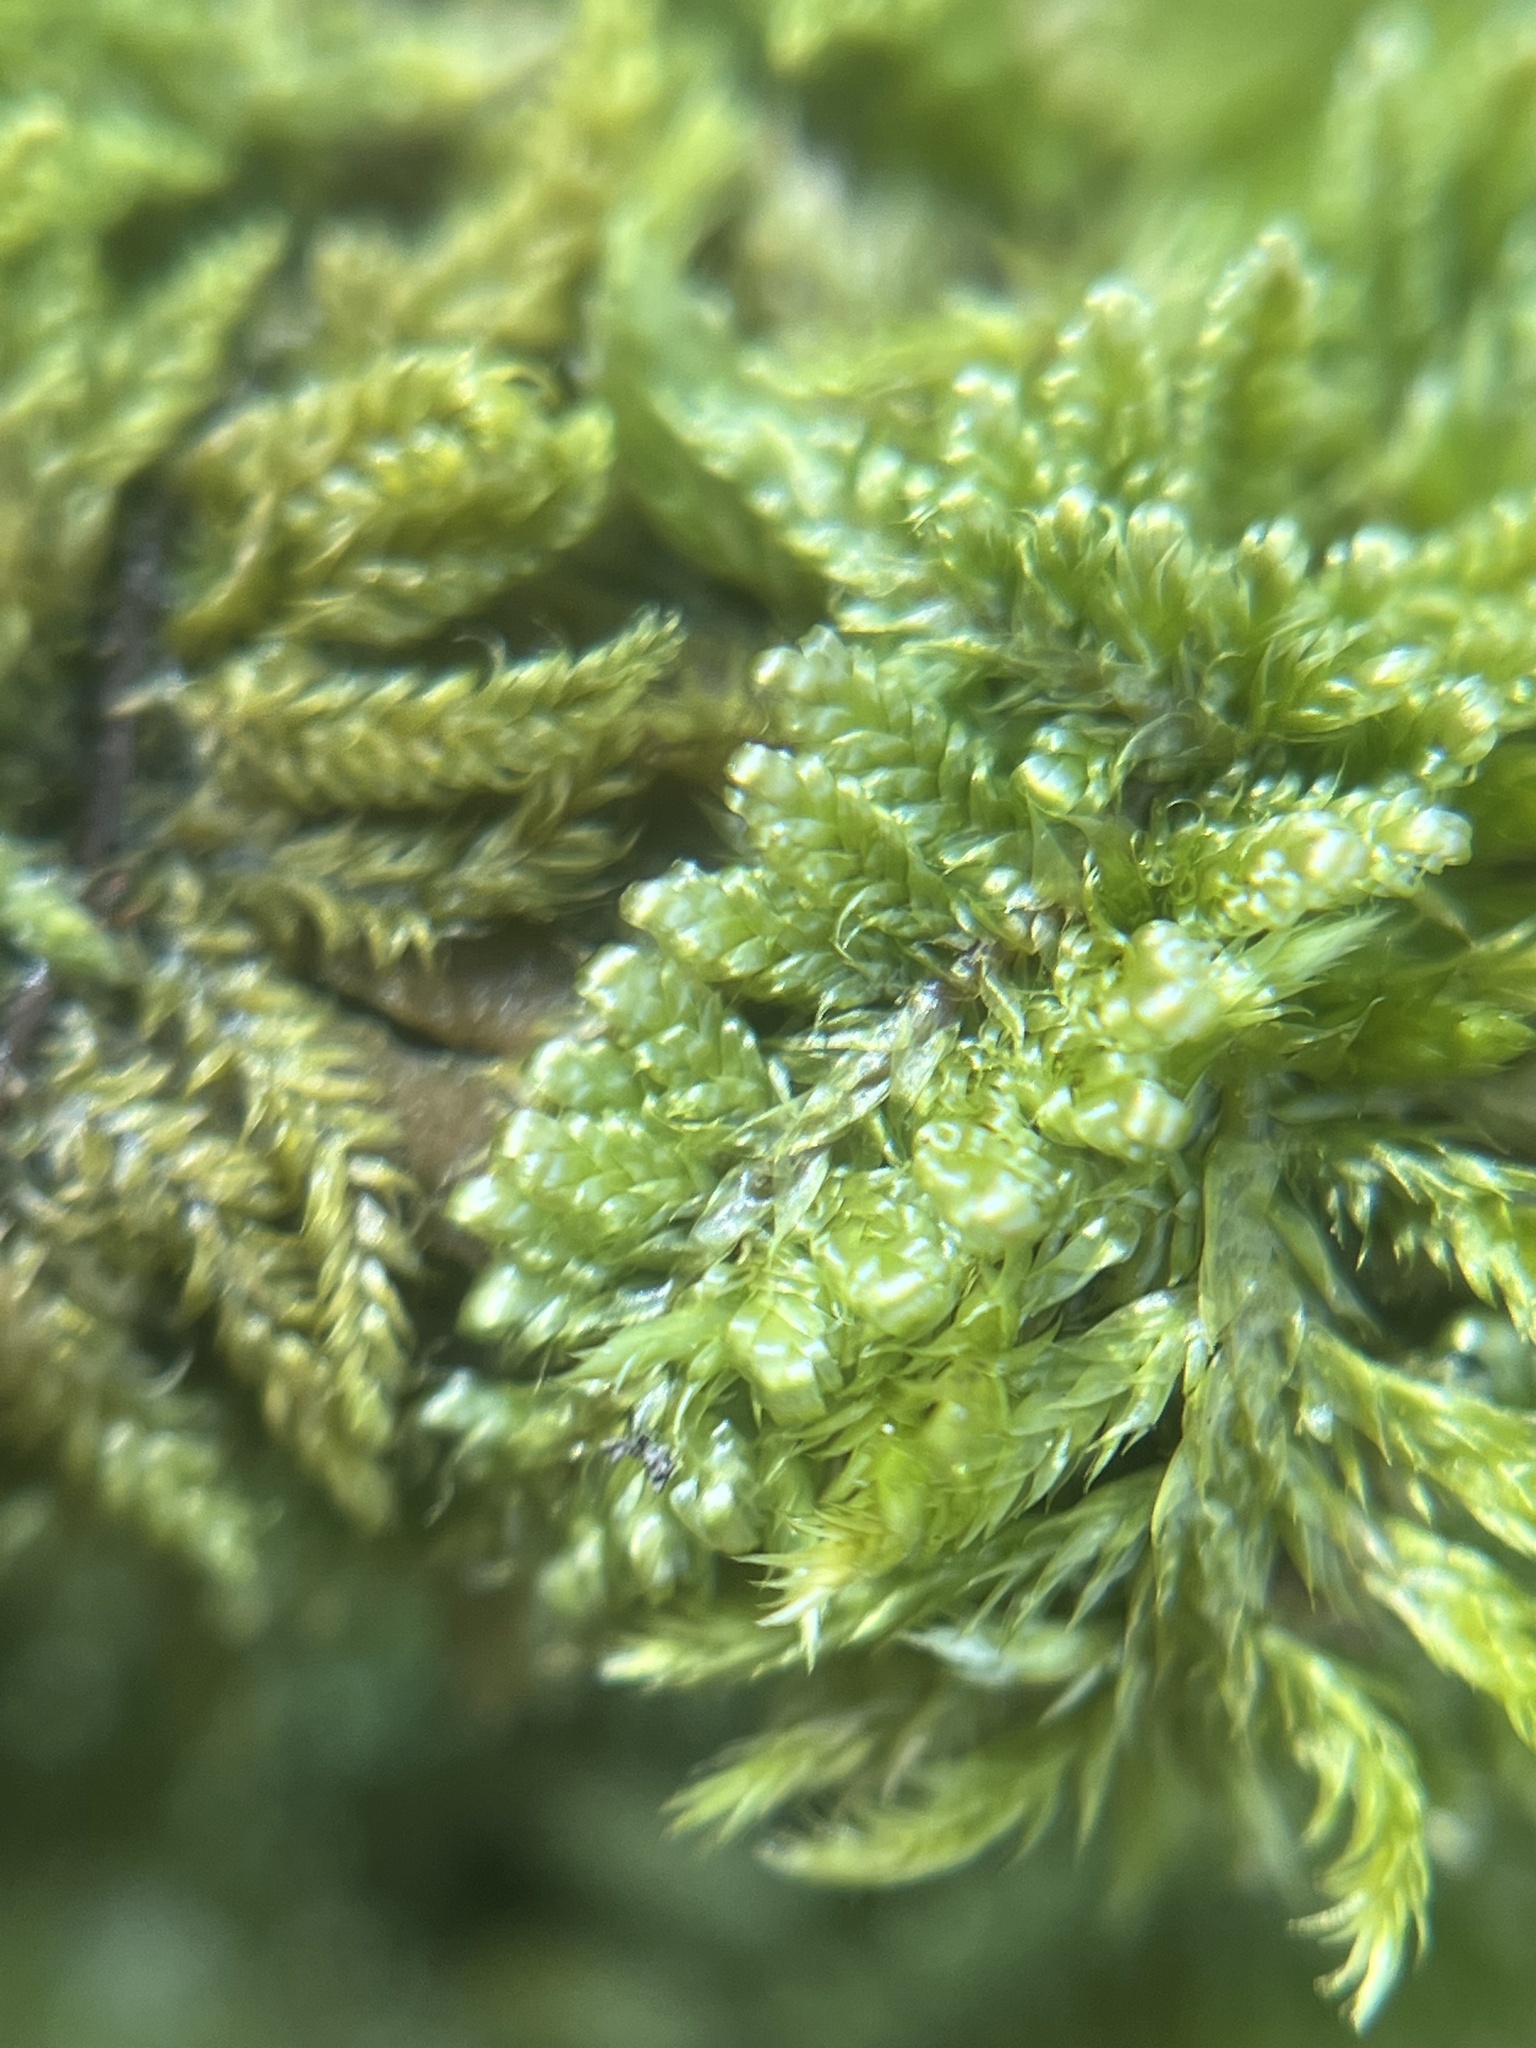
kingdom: Plantae
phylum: Bryophyta
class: Bryopsida
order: Hypnales
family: Callicladiaceae
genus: Callicladium
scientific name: Callicladium imponens
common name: Brocade moss
